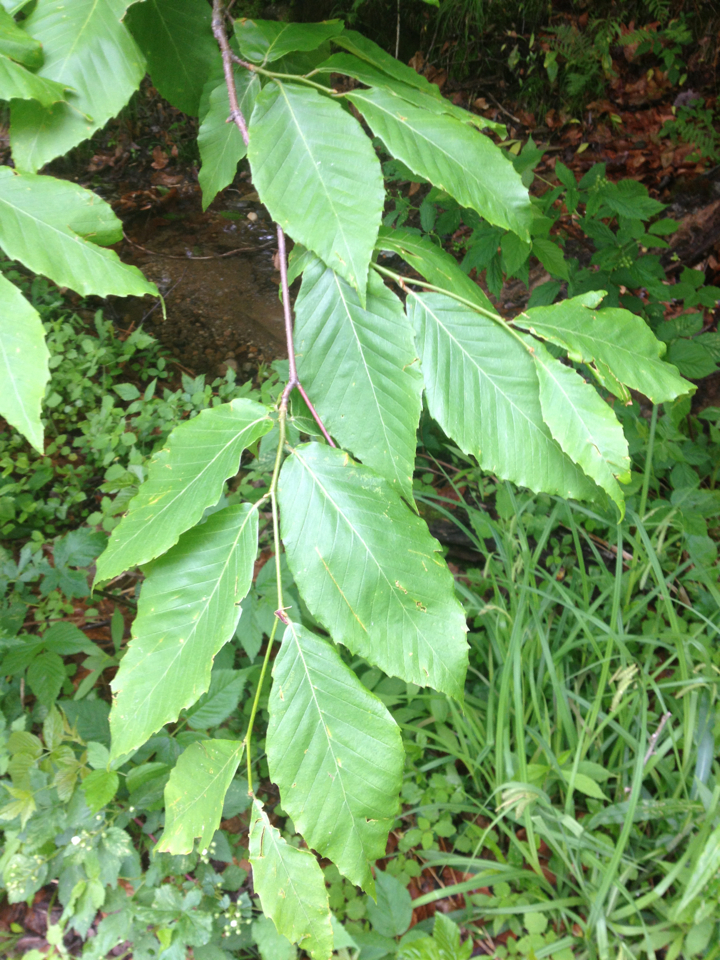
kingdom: Plantae
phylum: Tracheophyta
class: Magnoliopsida
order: Fagales
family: Fagaceae
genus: Fagus
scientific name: Fagus grandifolia
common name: American beech
